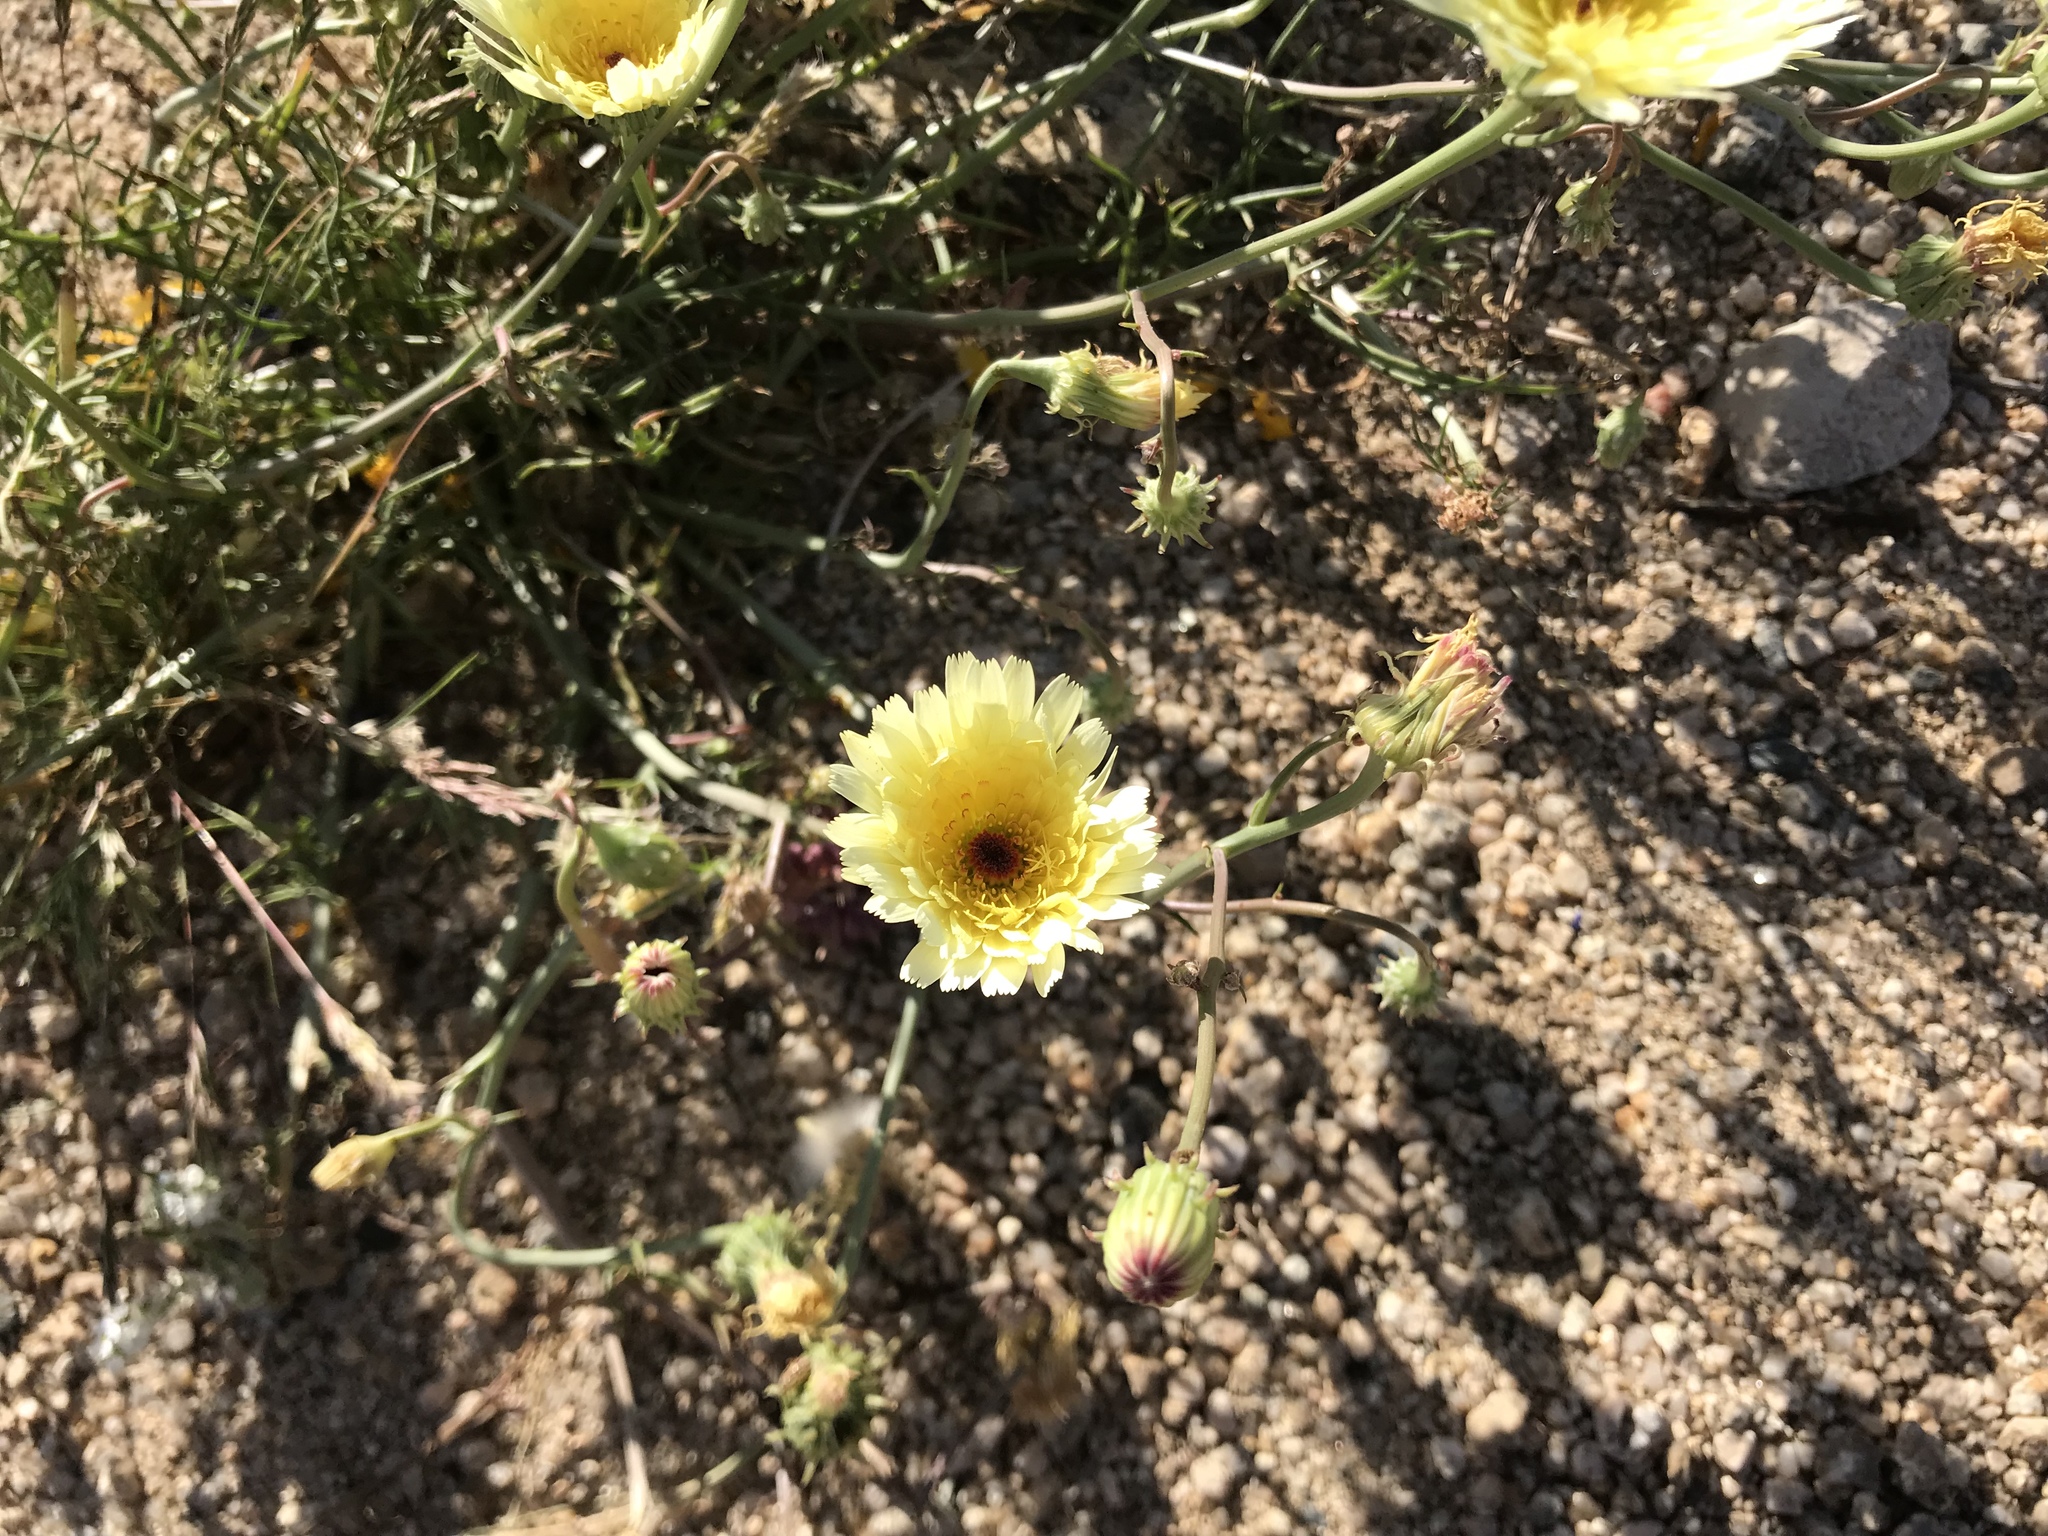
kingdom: Plantae
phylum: Tracheophyta
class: Magnoliopsida
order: Asterales
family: Asteraceae
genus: Malacothrix
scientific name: Malacothrix glabrata
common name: Smooth desert-dandelion
